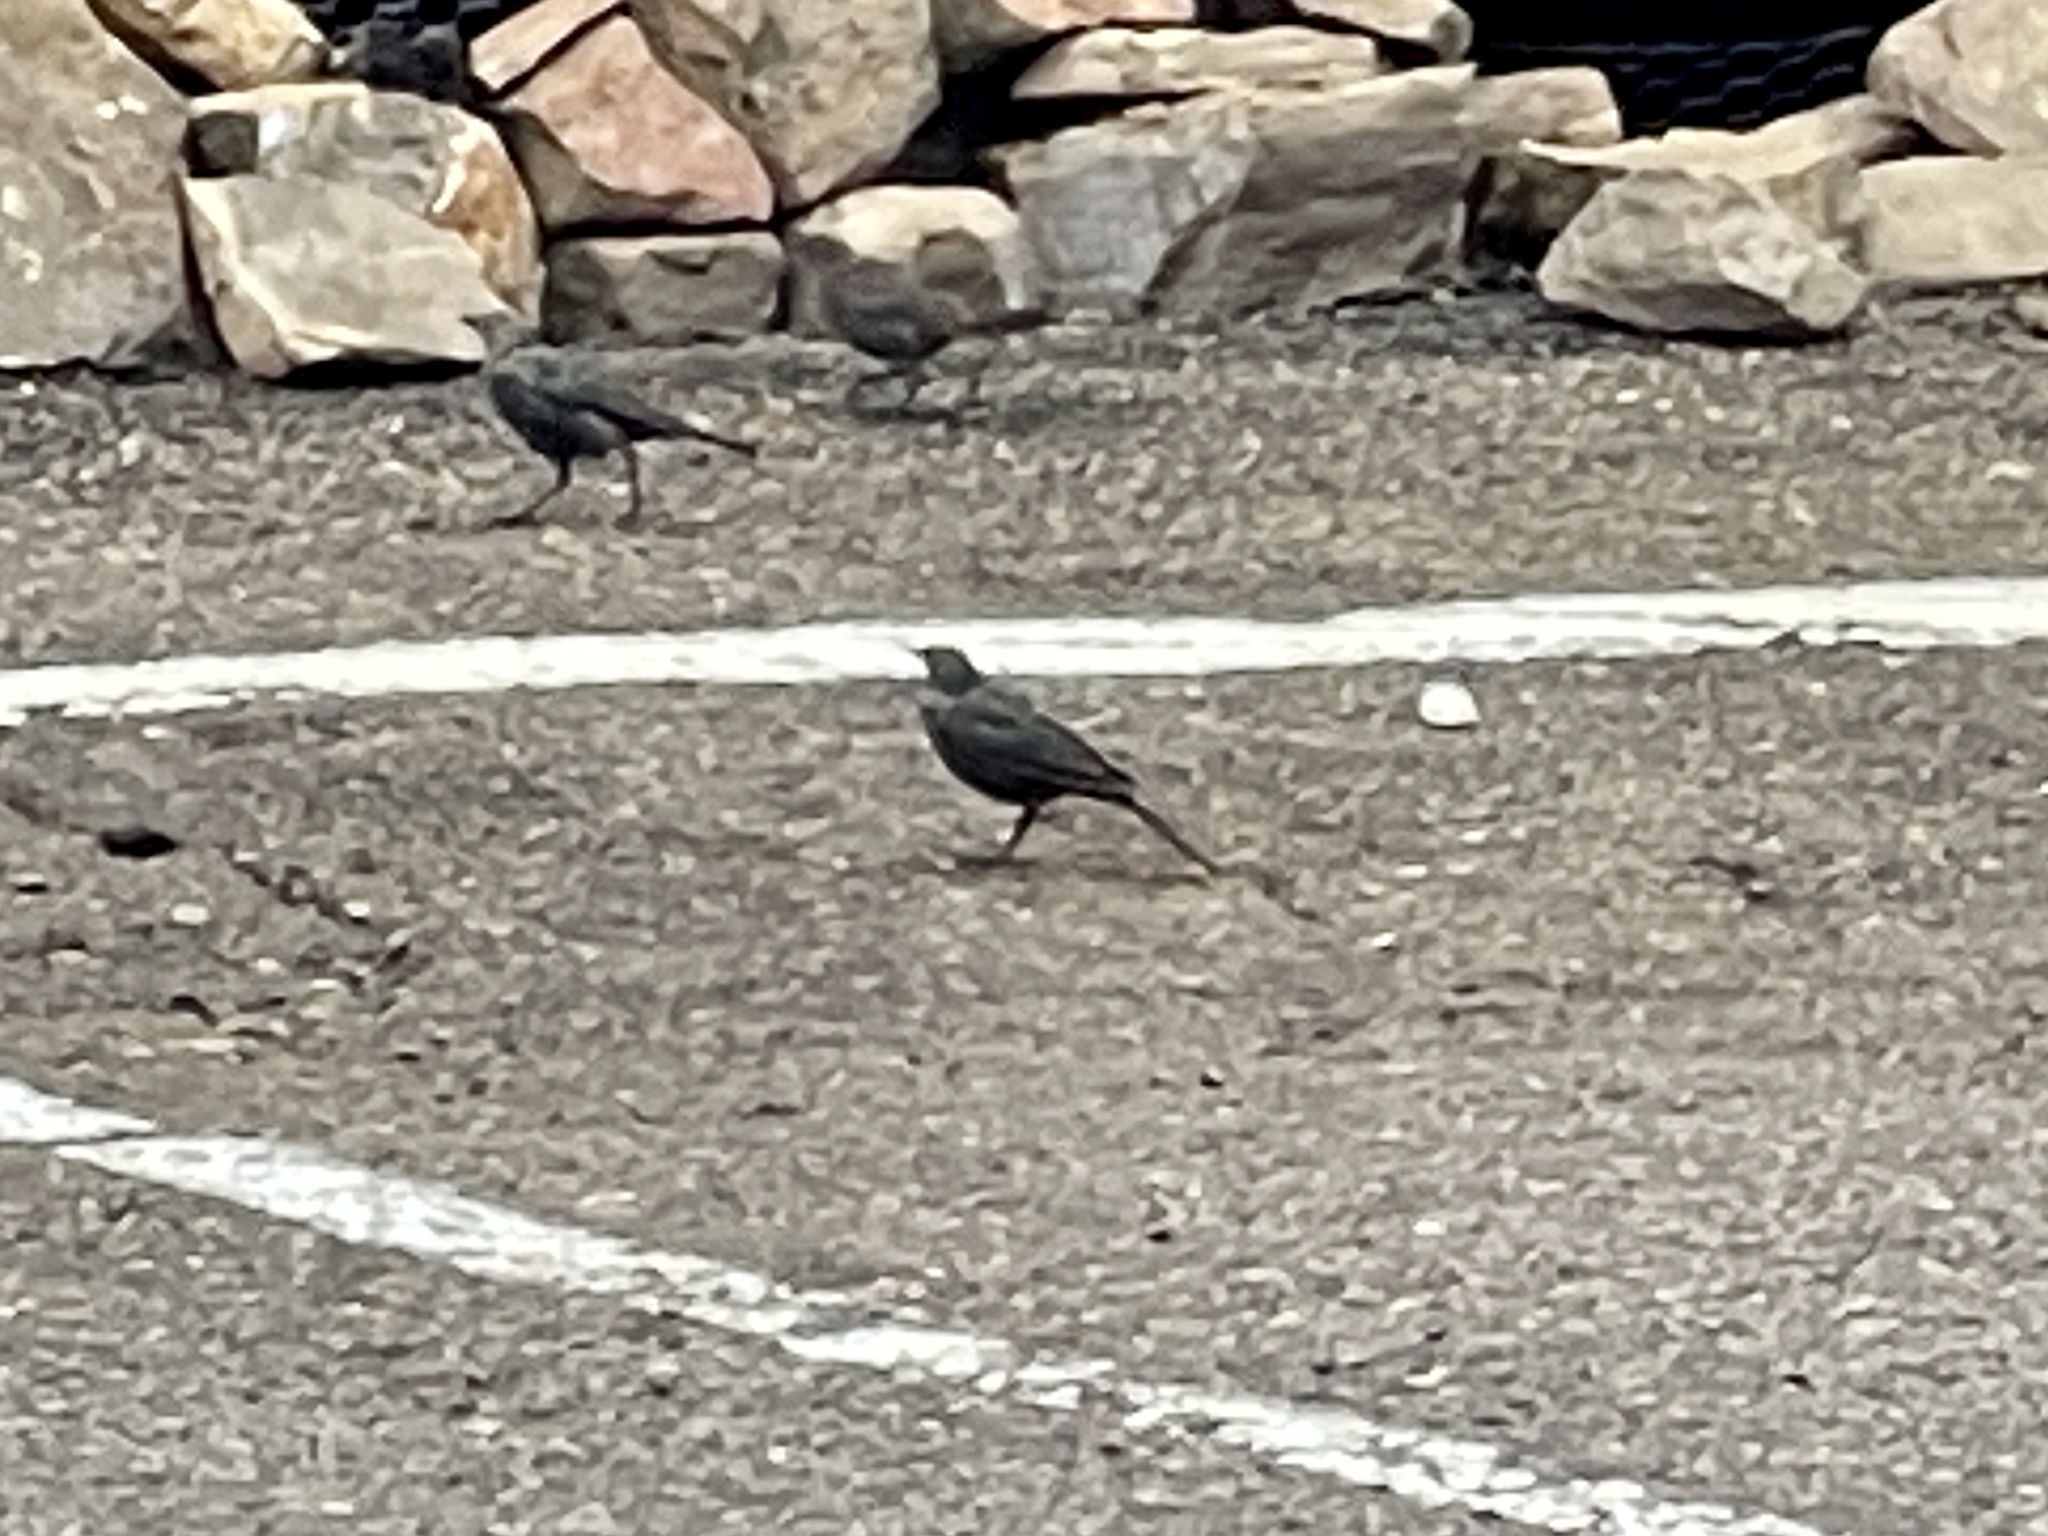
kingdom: Animalia
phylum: Chordata
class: Aves
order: Passeriformes
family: Icteridae
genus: Euphagus
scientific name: Euphagus cyanocephalus
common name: Brewer's blackbird
